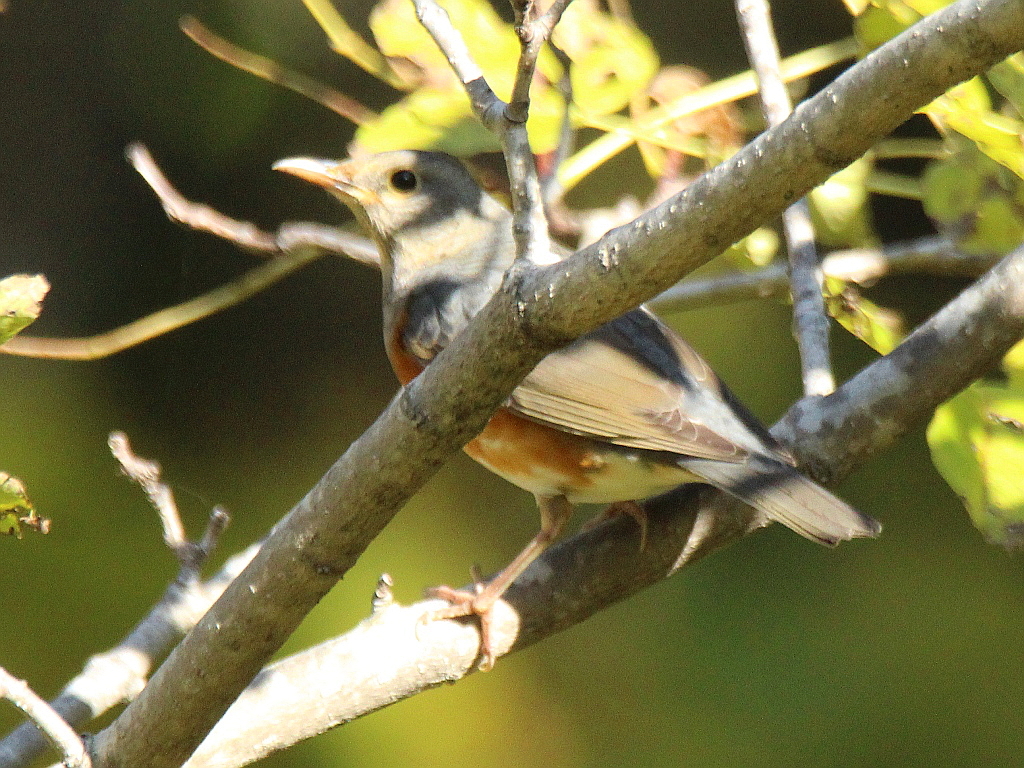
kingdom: Animalia
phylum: Chordata
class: Aves
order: Passeriformes
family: Turdidae
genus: Turdus
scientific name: Turdus hortulorum
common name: Grey-backed thrush
